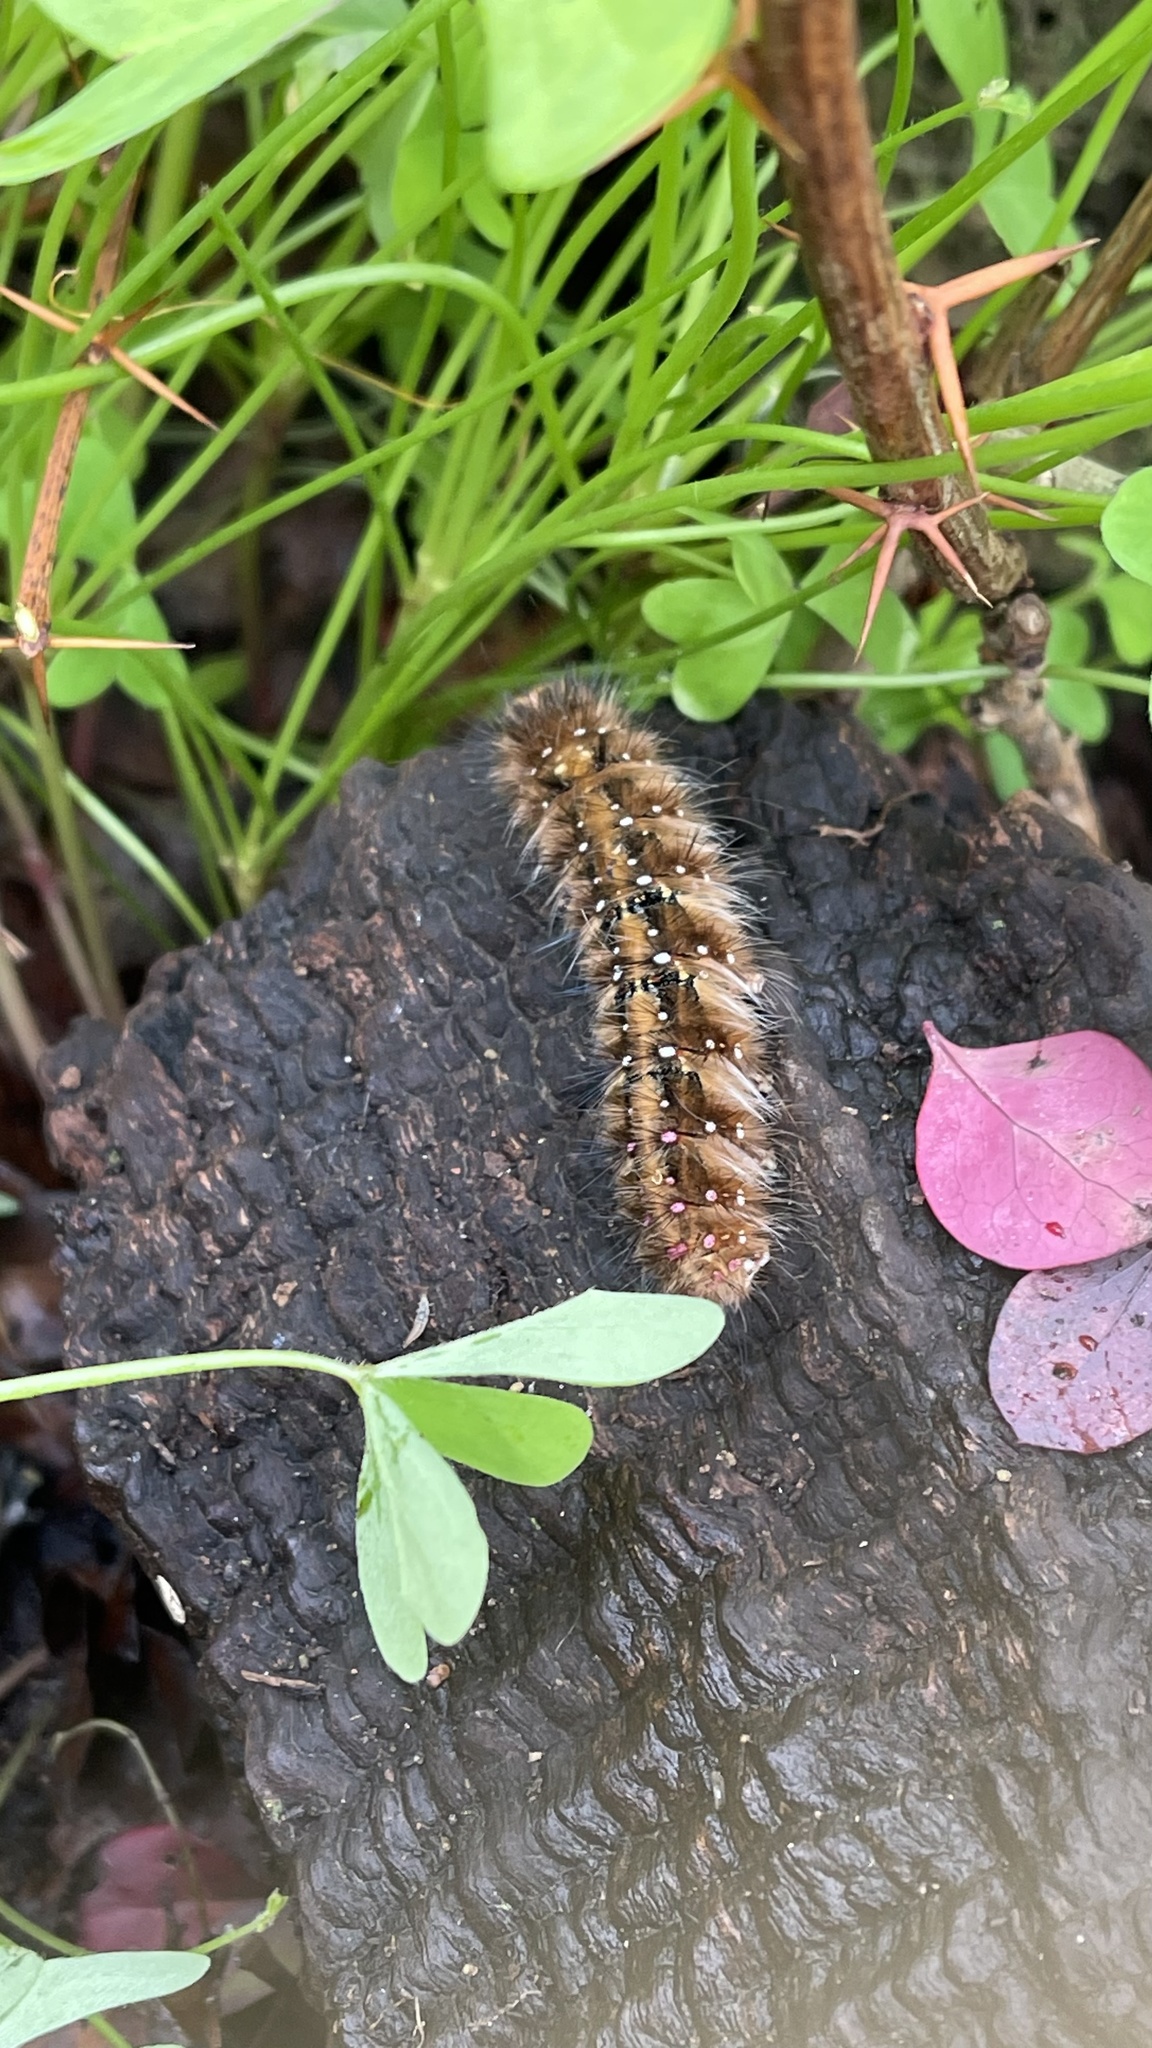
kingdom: Animalia
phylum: Arthropoda
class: Insecta
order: Lepidoptera
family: Anthelidae
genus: Anthela
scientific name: Anthela acuta
